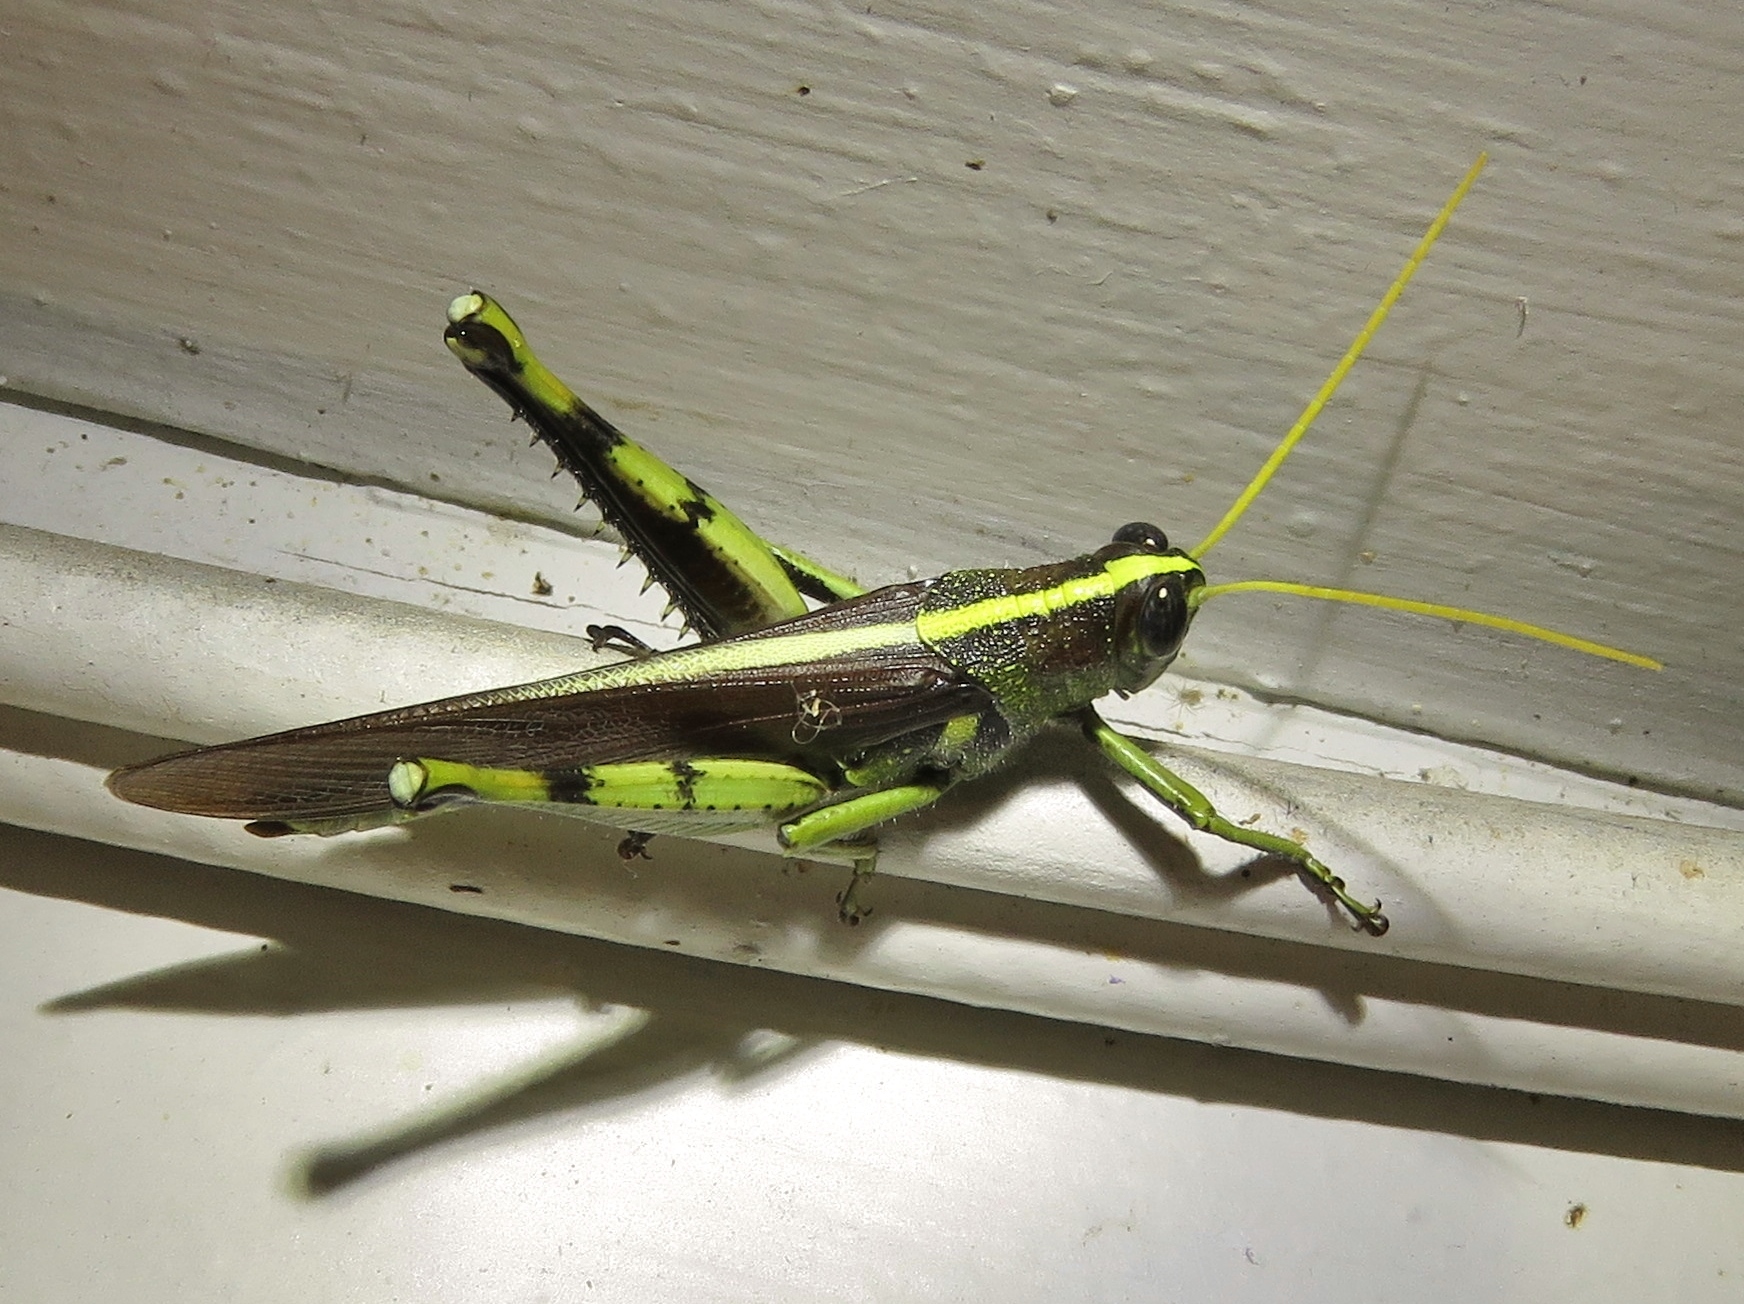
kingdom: Animalia
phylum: Arthropoda
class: Insecta
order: Orthoptera
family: Acrididae
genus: Schistocerca
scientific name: Schistocerca obscura
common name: Obscure bird grasshopper
